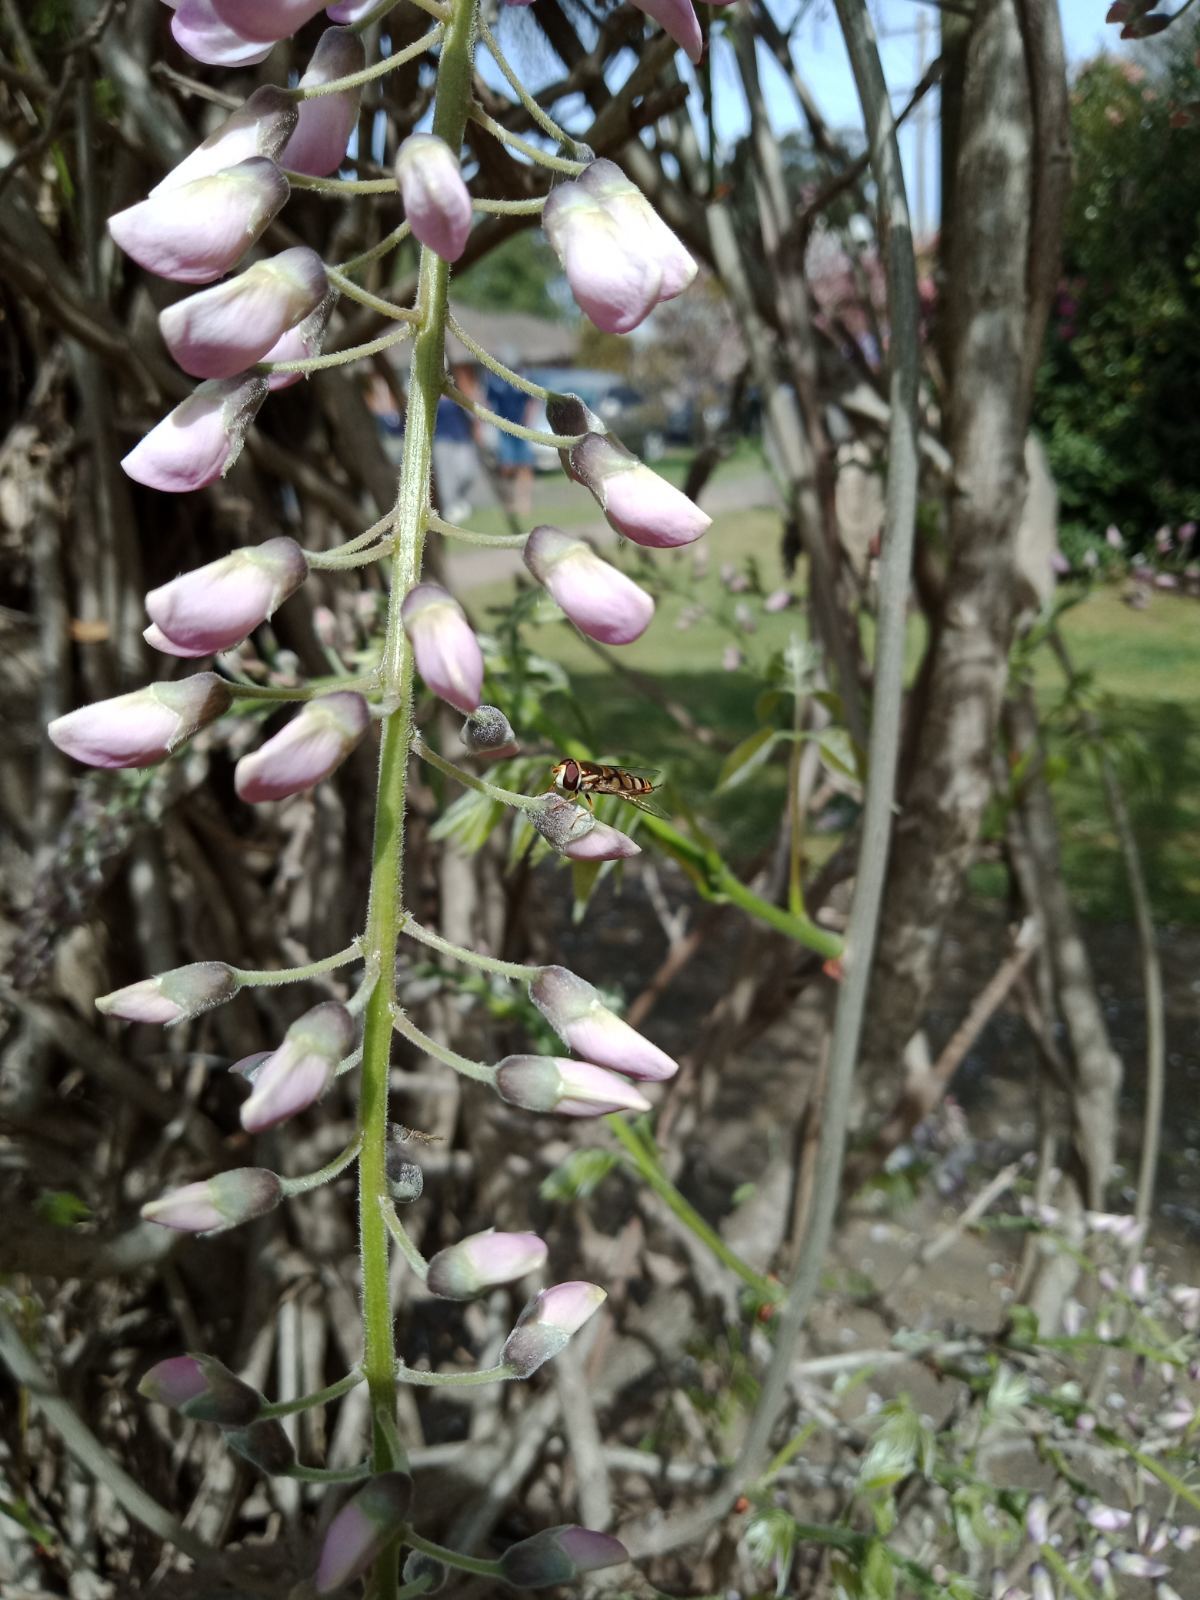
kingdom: Animalia
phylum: Arthropoda
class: Insecta
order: Diptera
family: Syrphidae
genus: Simosyrphus
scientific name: Simosyrphus grandicornis
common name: Hoverfly
